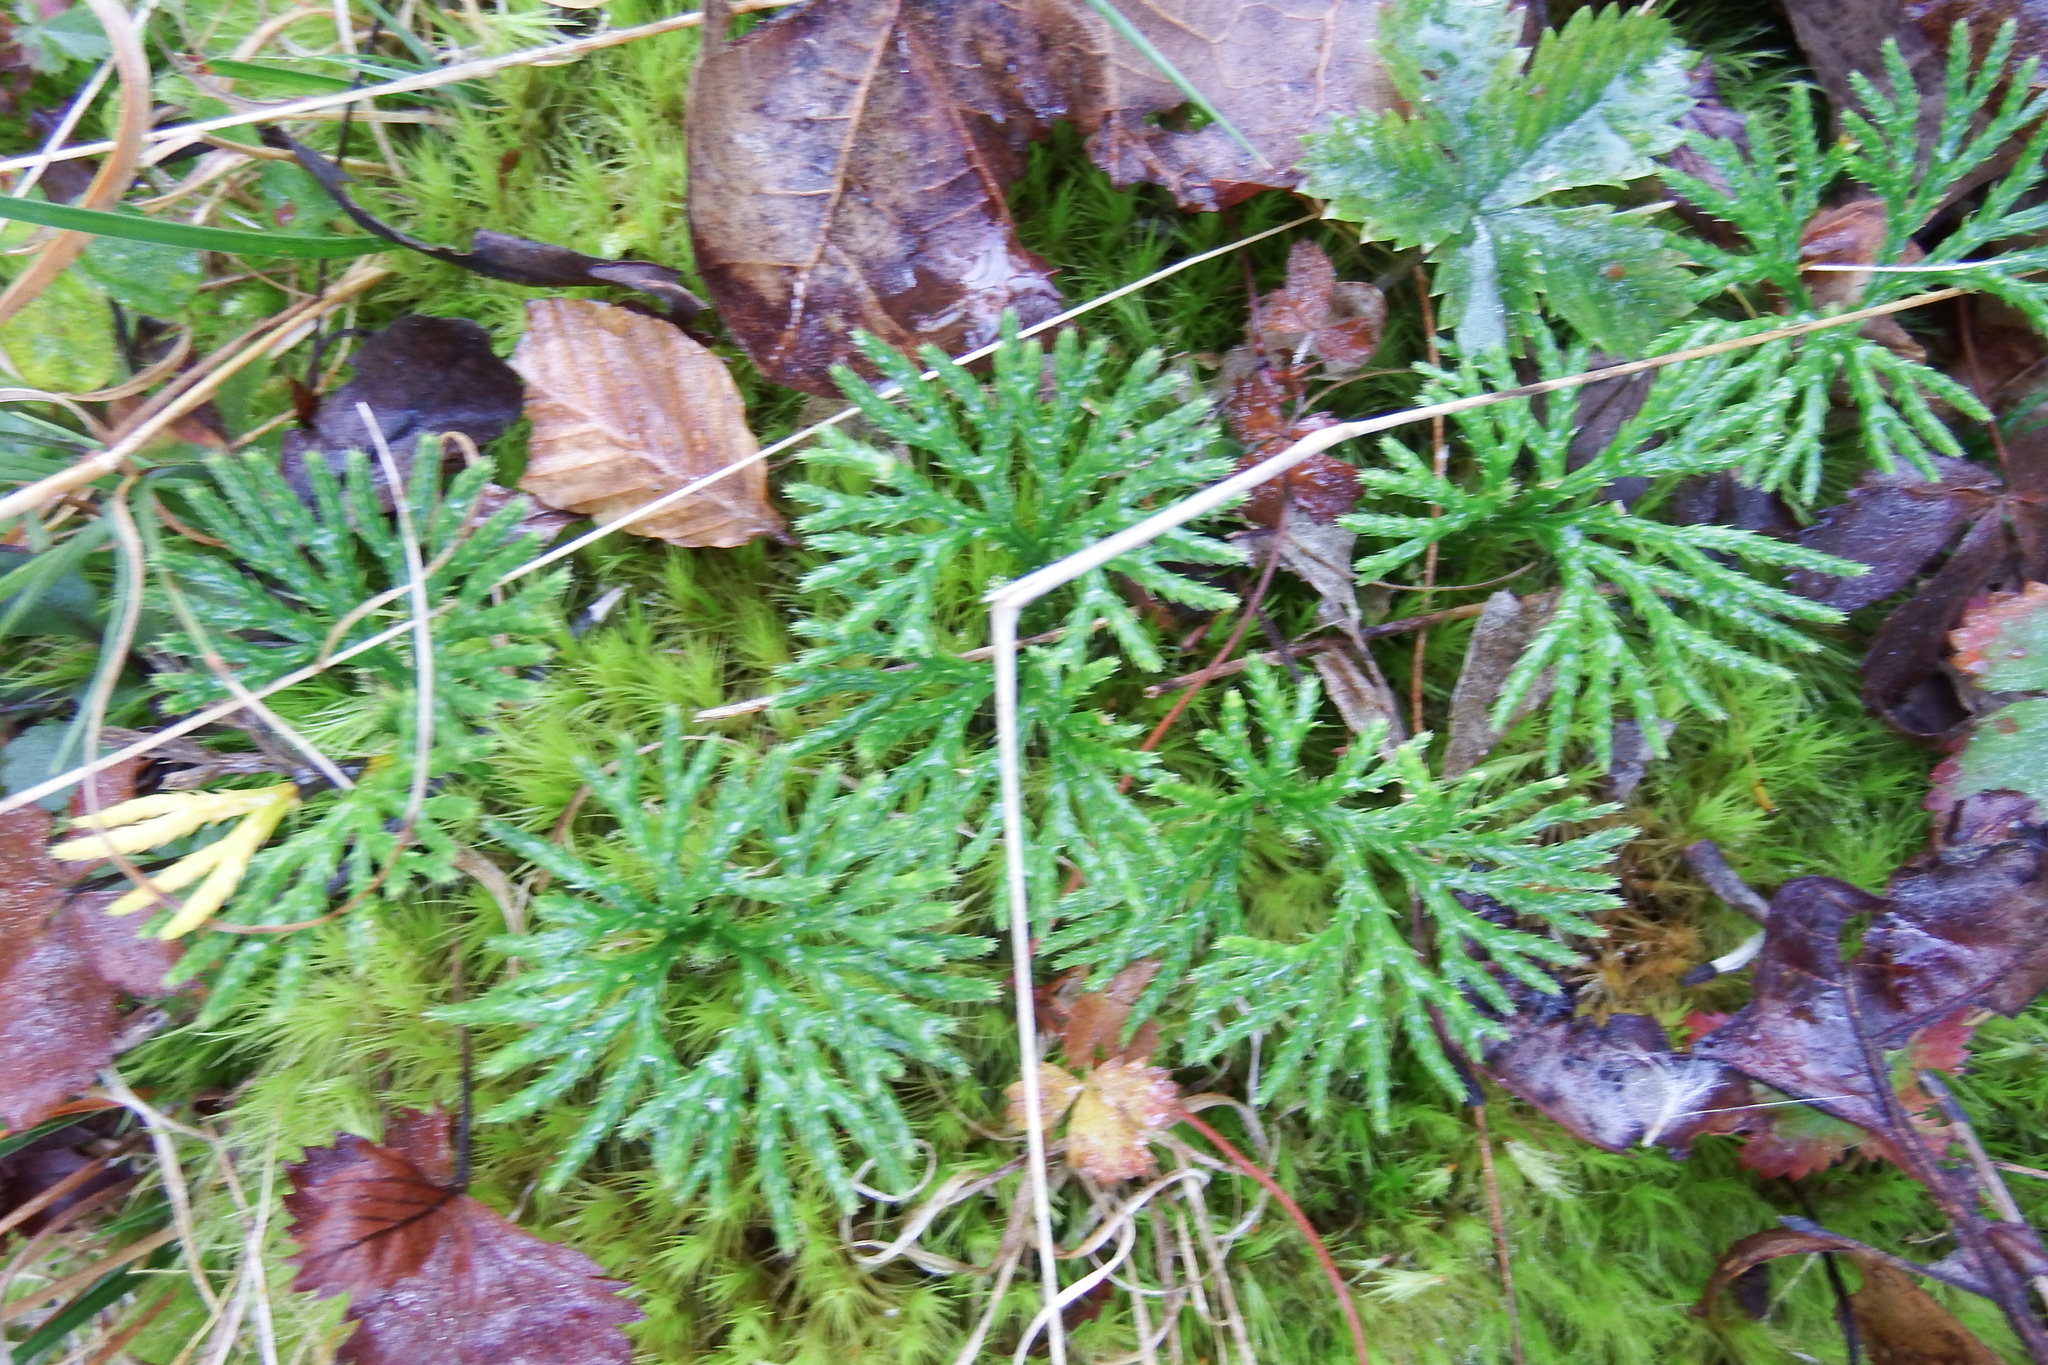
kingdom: Plantae
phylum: Tracheophyta
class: Lycopodiopsida
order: Lycopodiales
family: Lycopodiaceae
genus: Diphasiastrum
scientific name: Diphasiastrum digitatum
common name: Southern running-pine
